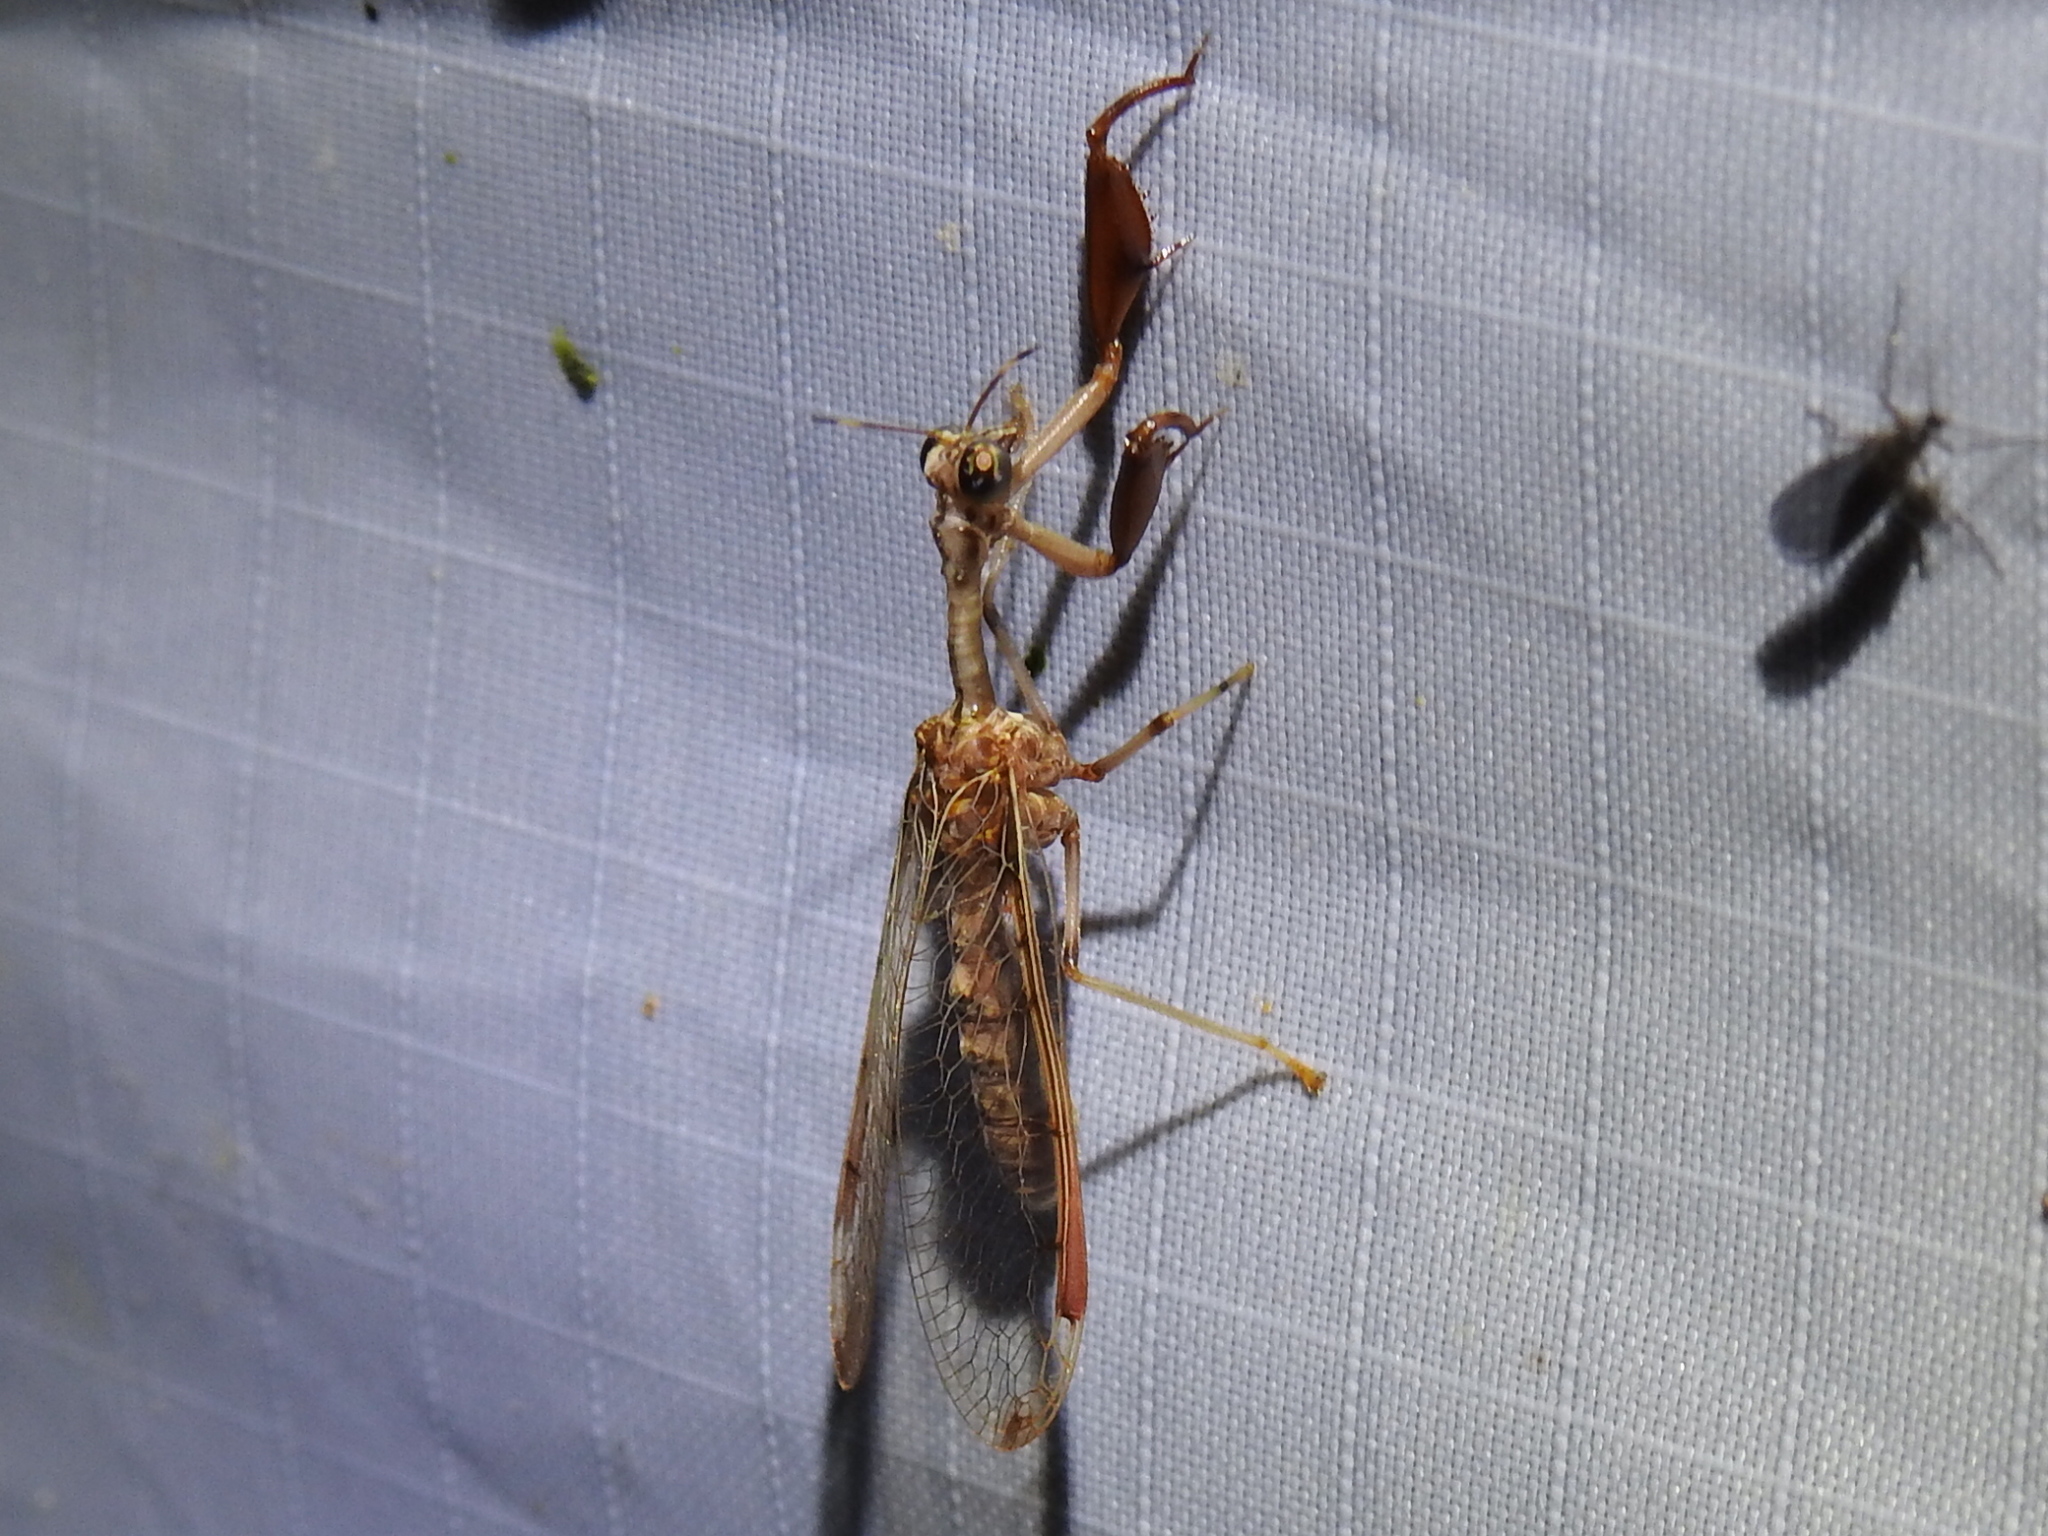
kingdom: Animalia
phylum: Arthropoda
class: Insecta
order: Neuroptera
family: Mantispidae
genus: Dicromantispa
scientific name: Dicromantispa interrupta
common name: Four-spotted mantidfly
